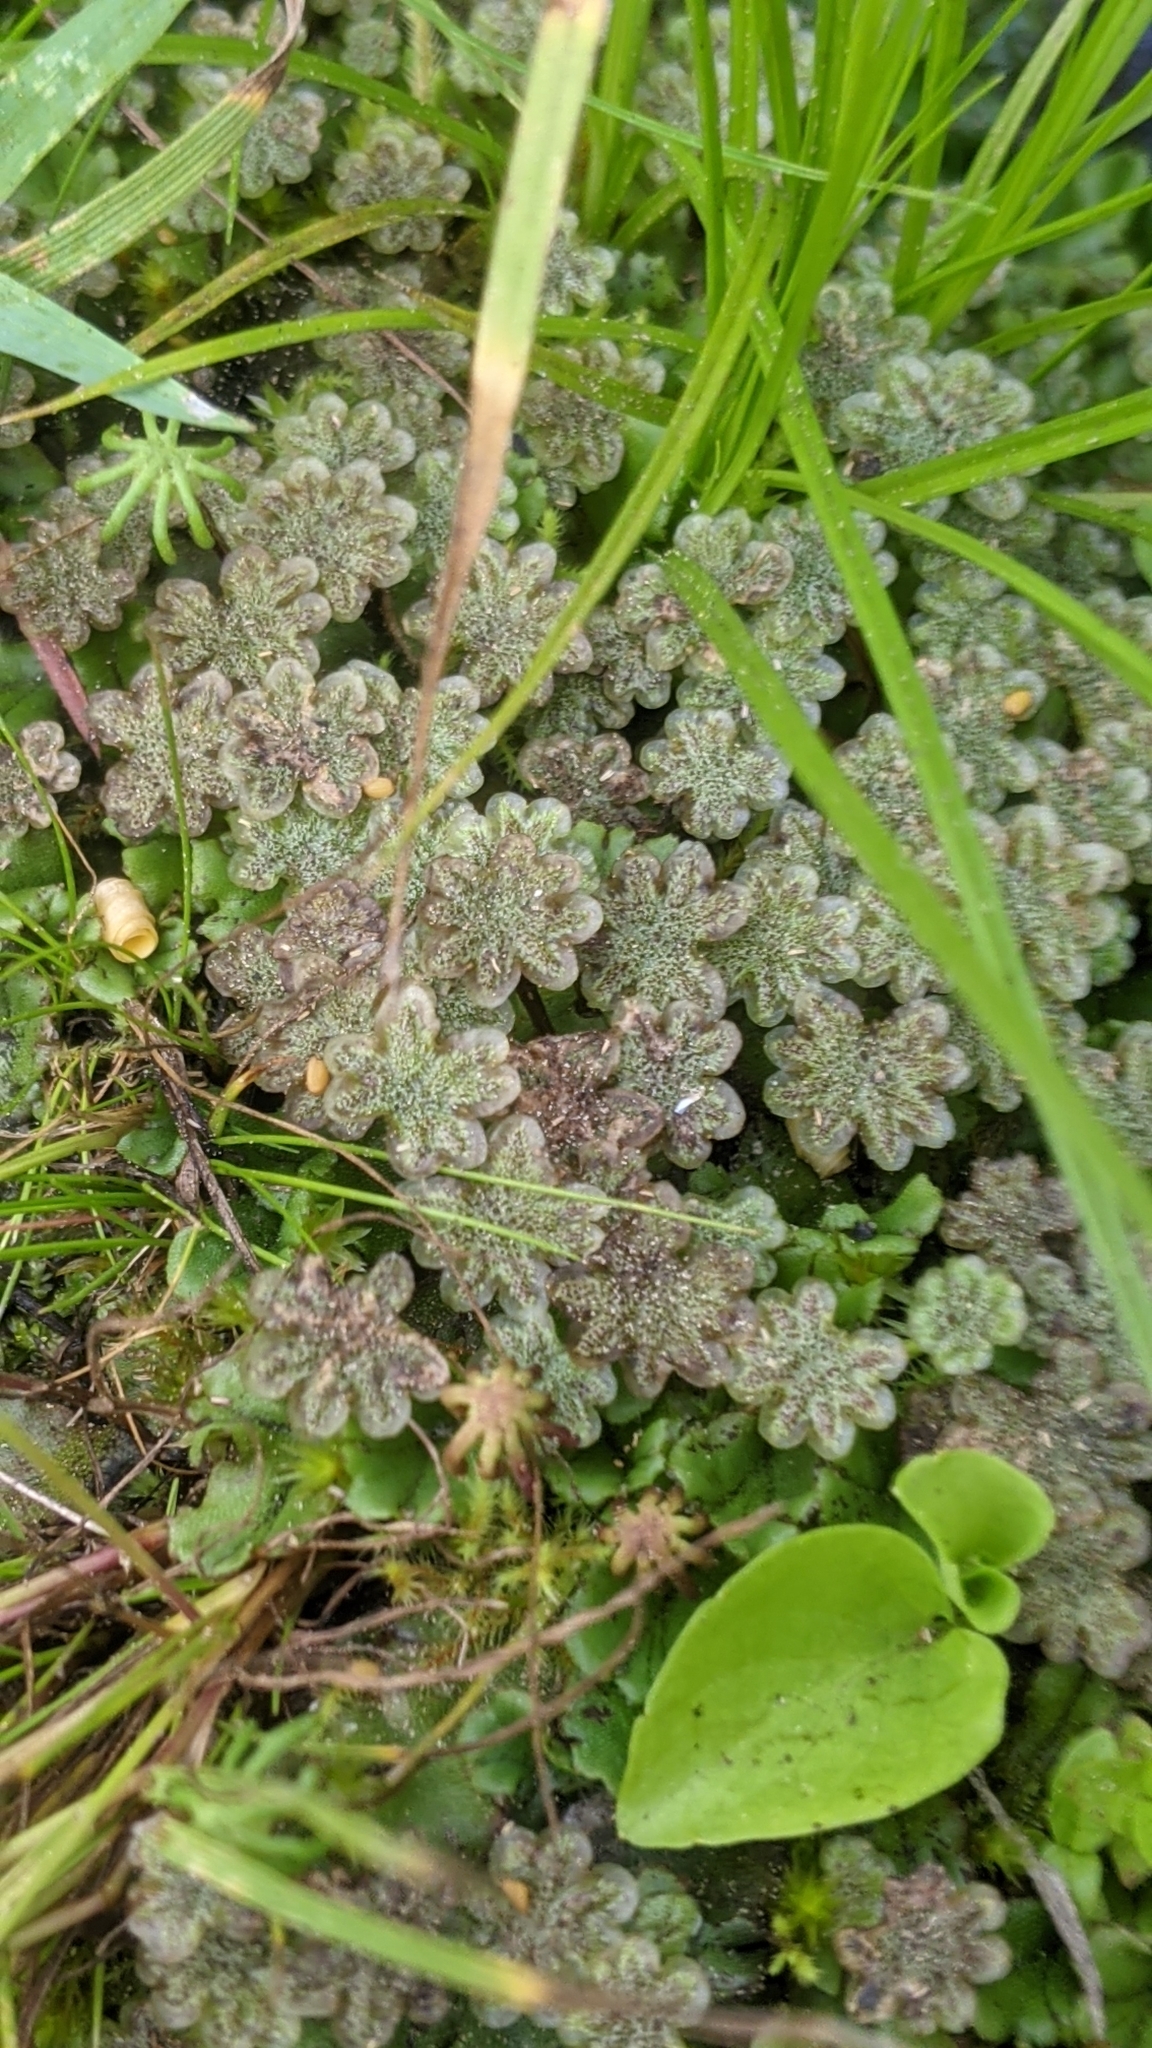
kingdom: Plantae
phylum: Marchantiophyta
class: Marchantiopsida
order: Marchantiales
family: Marchantiaceae
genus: Marchantia
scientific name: Marchantia polymorpha
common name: Common liverwort
